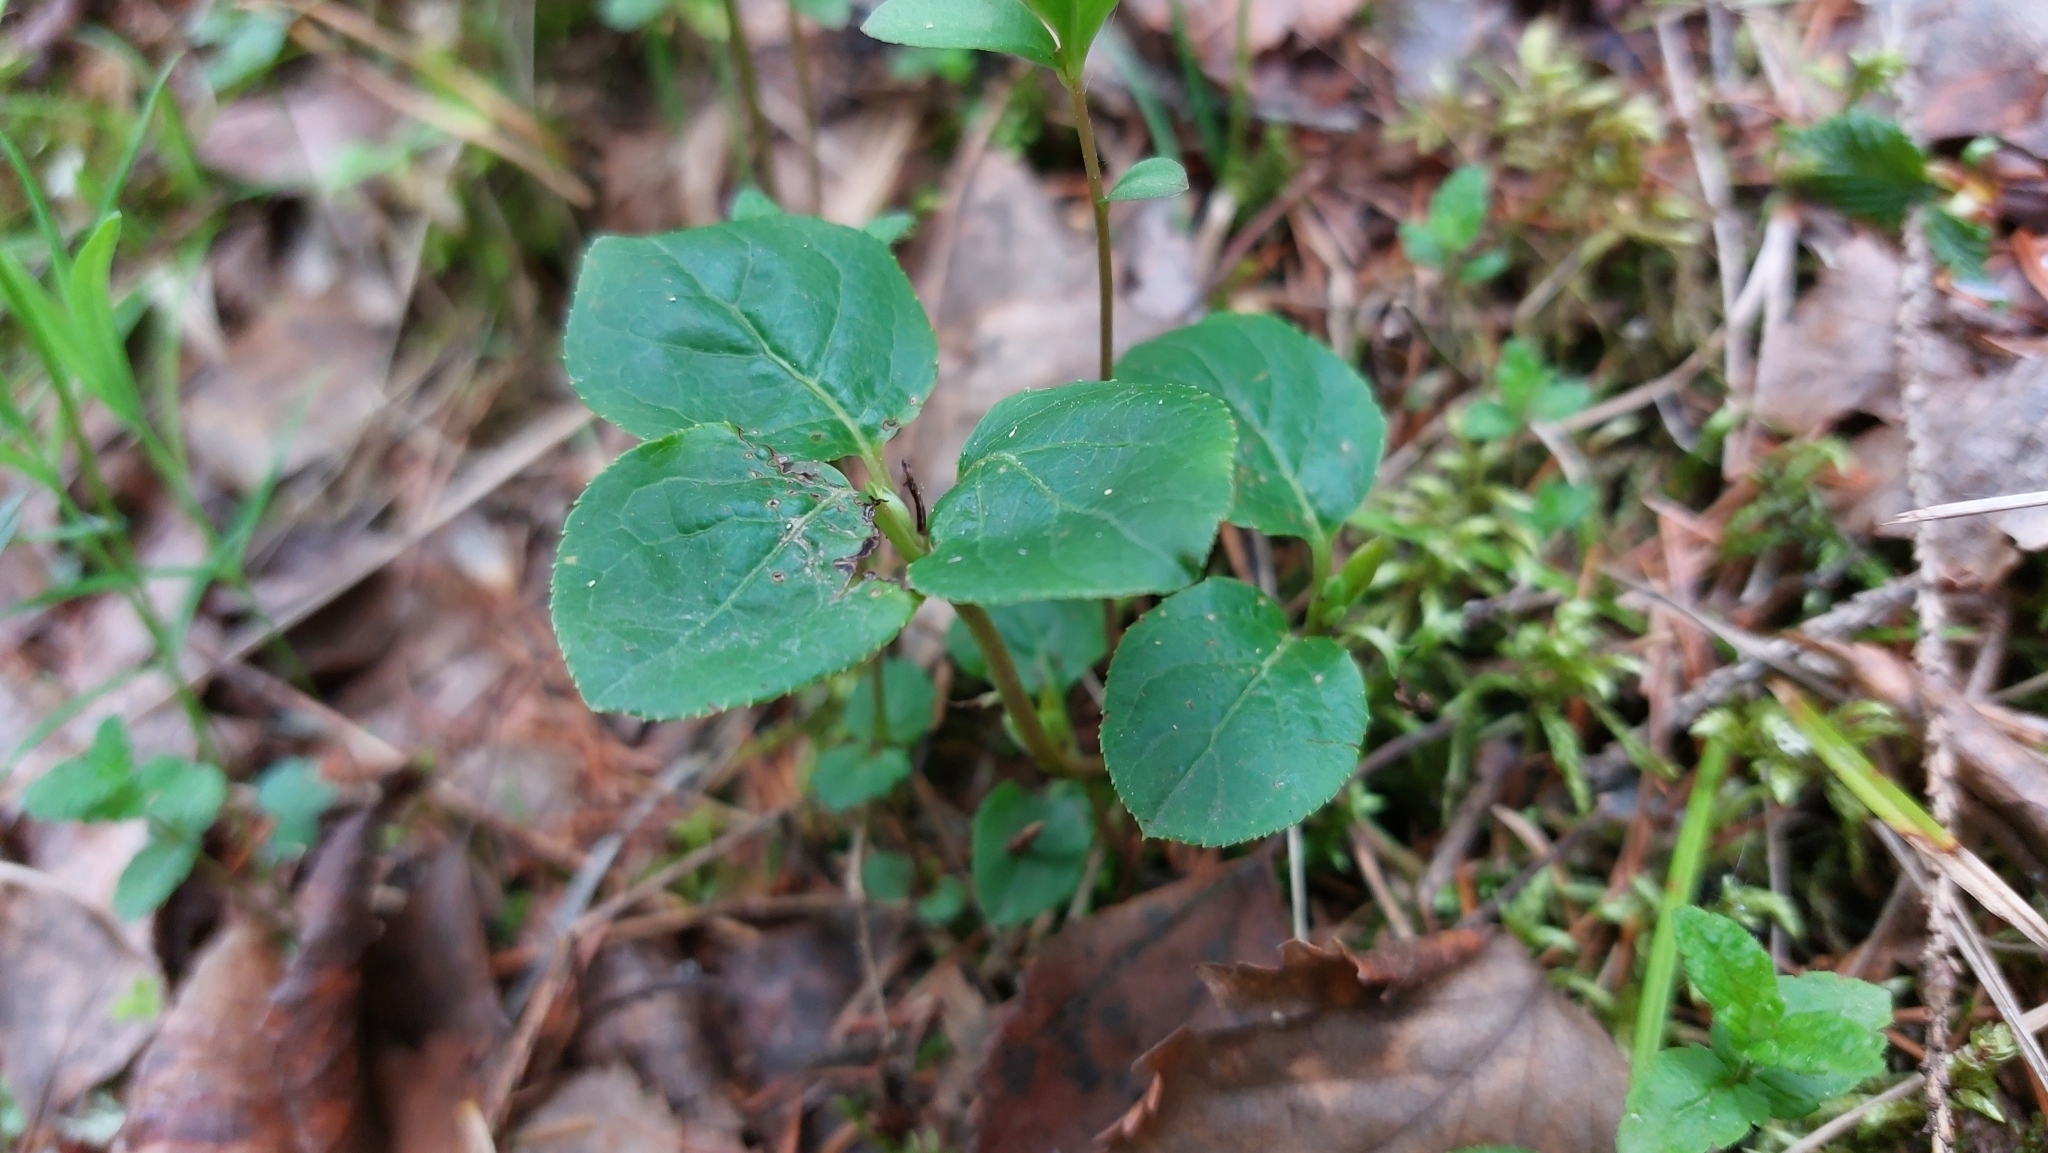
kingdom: Plantae
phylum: Tracheophyta
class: Magnoliopsida
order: Ericales
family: Ericaceae
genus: Orthilia
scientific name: Orthilia secunda
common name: One-sided orthilia
